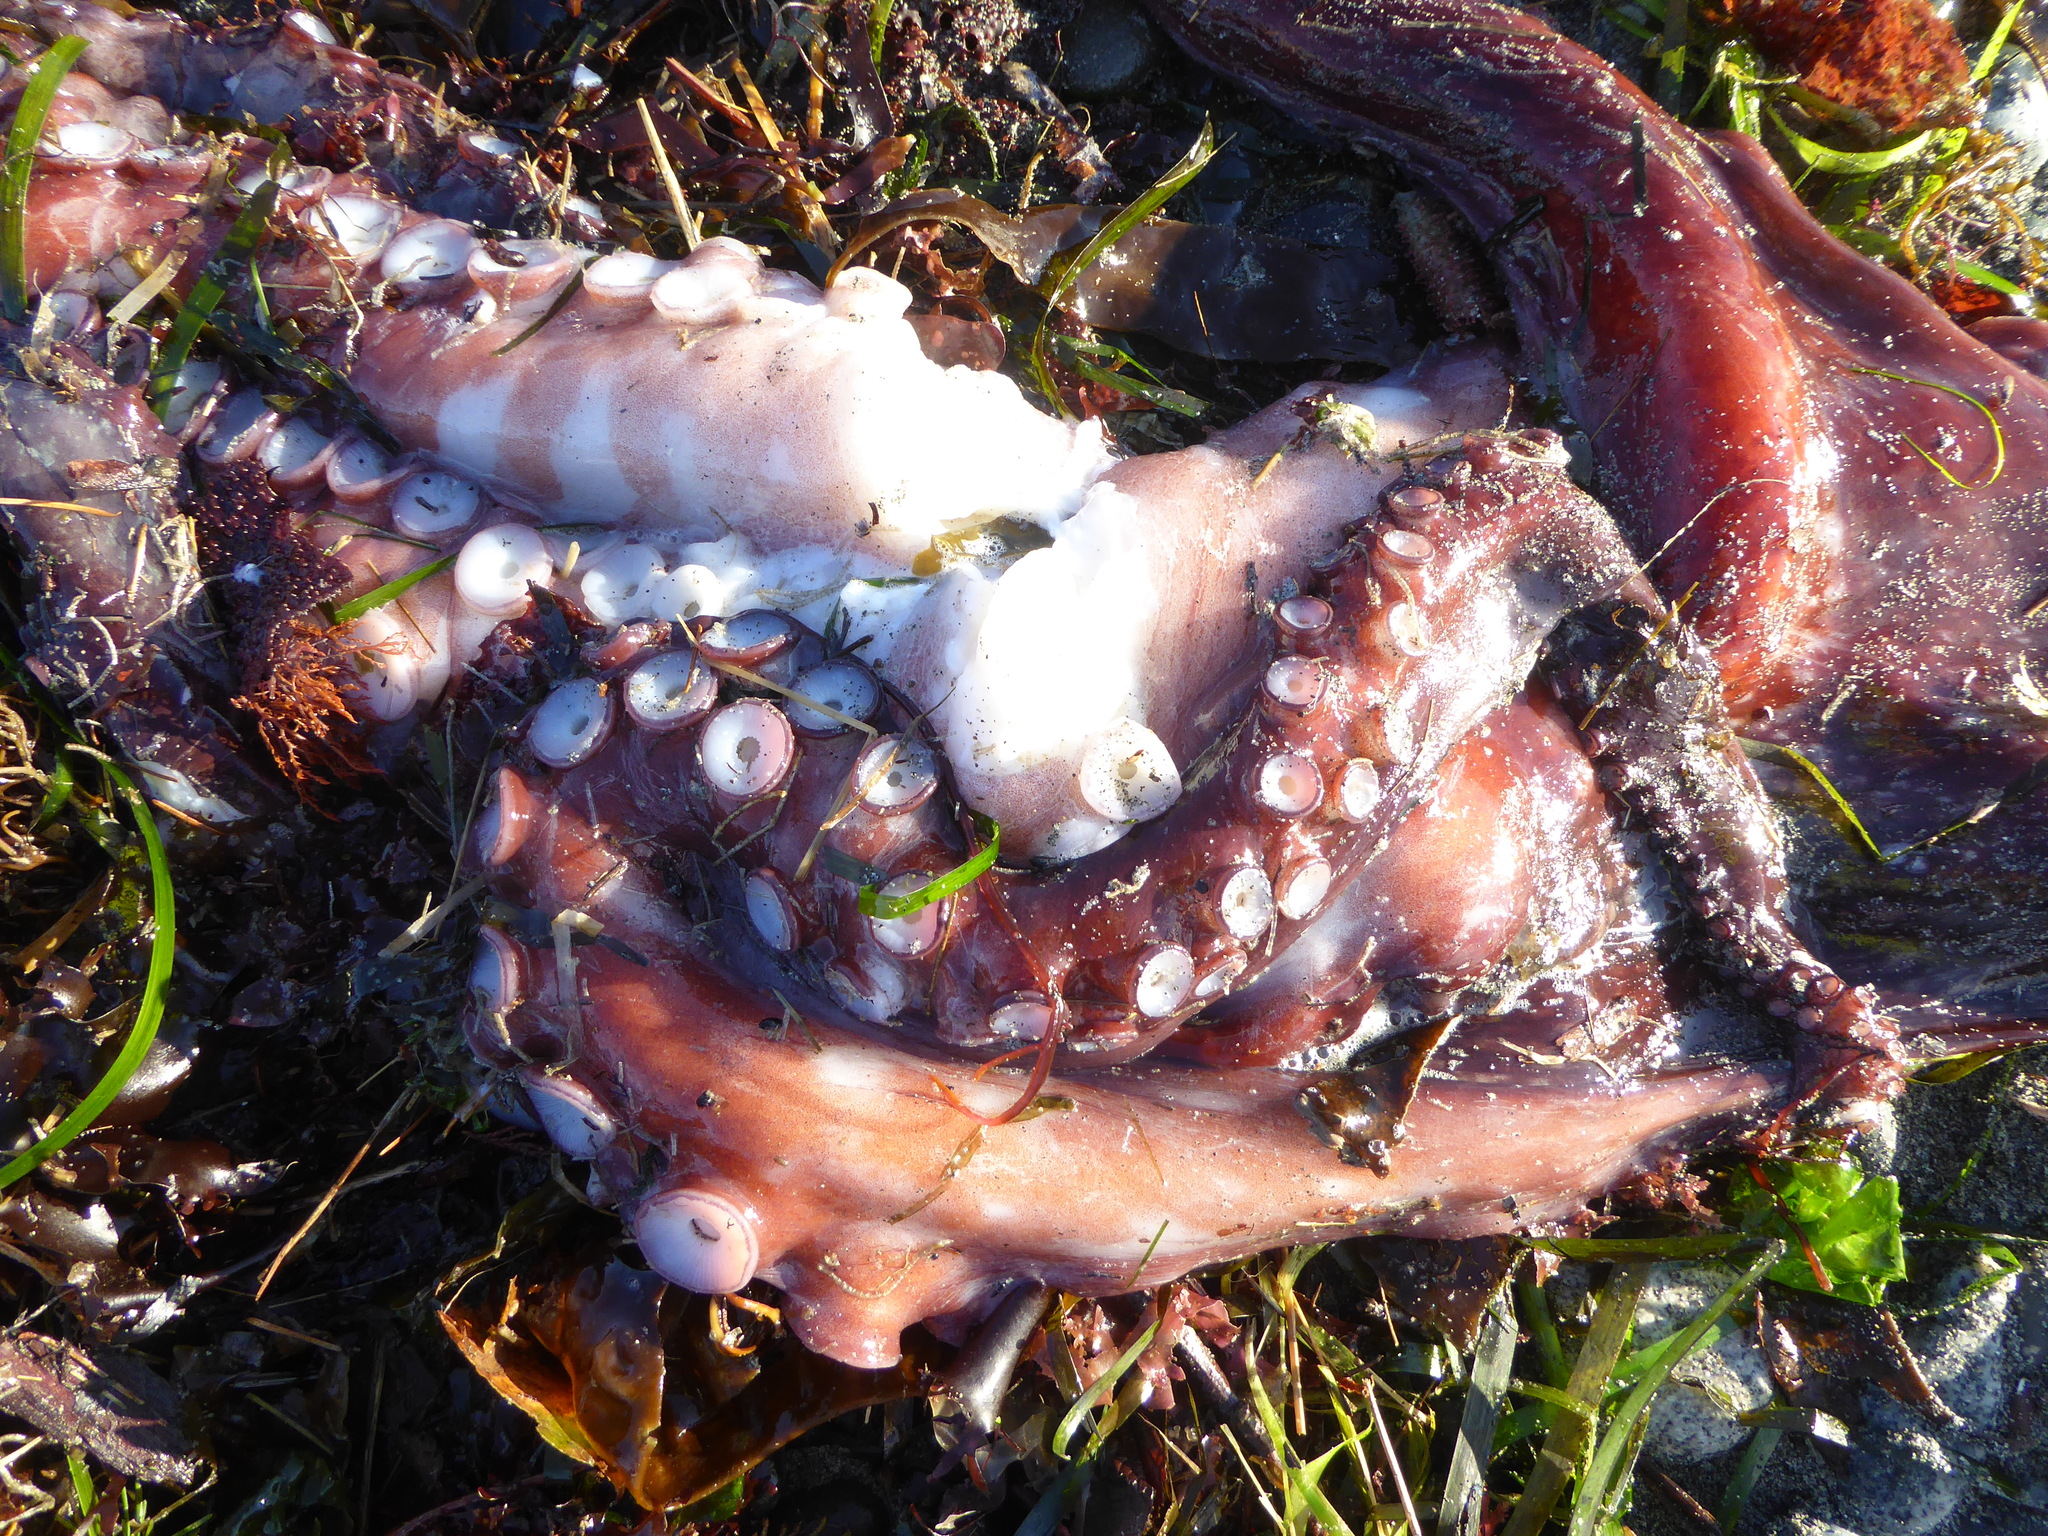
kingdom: Animalia
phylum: Mollusca
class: Cephalopoda
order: Octopoda
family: Enteroctopodidae
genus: Enteroctopus
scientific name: Enteroctopus dofleini
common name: Giant north pacific octopus
